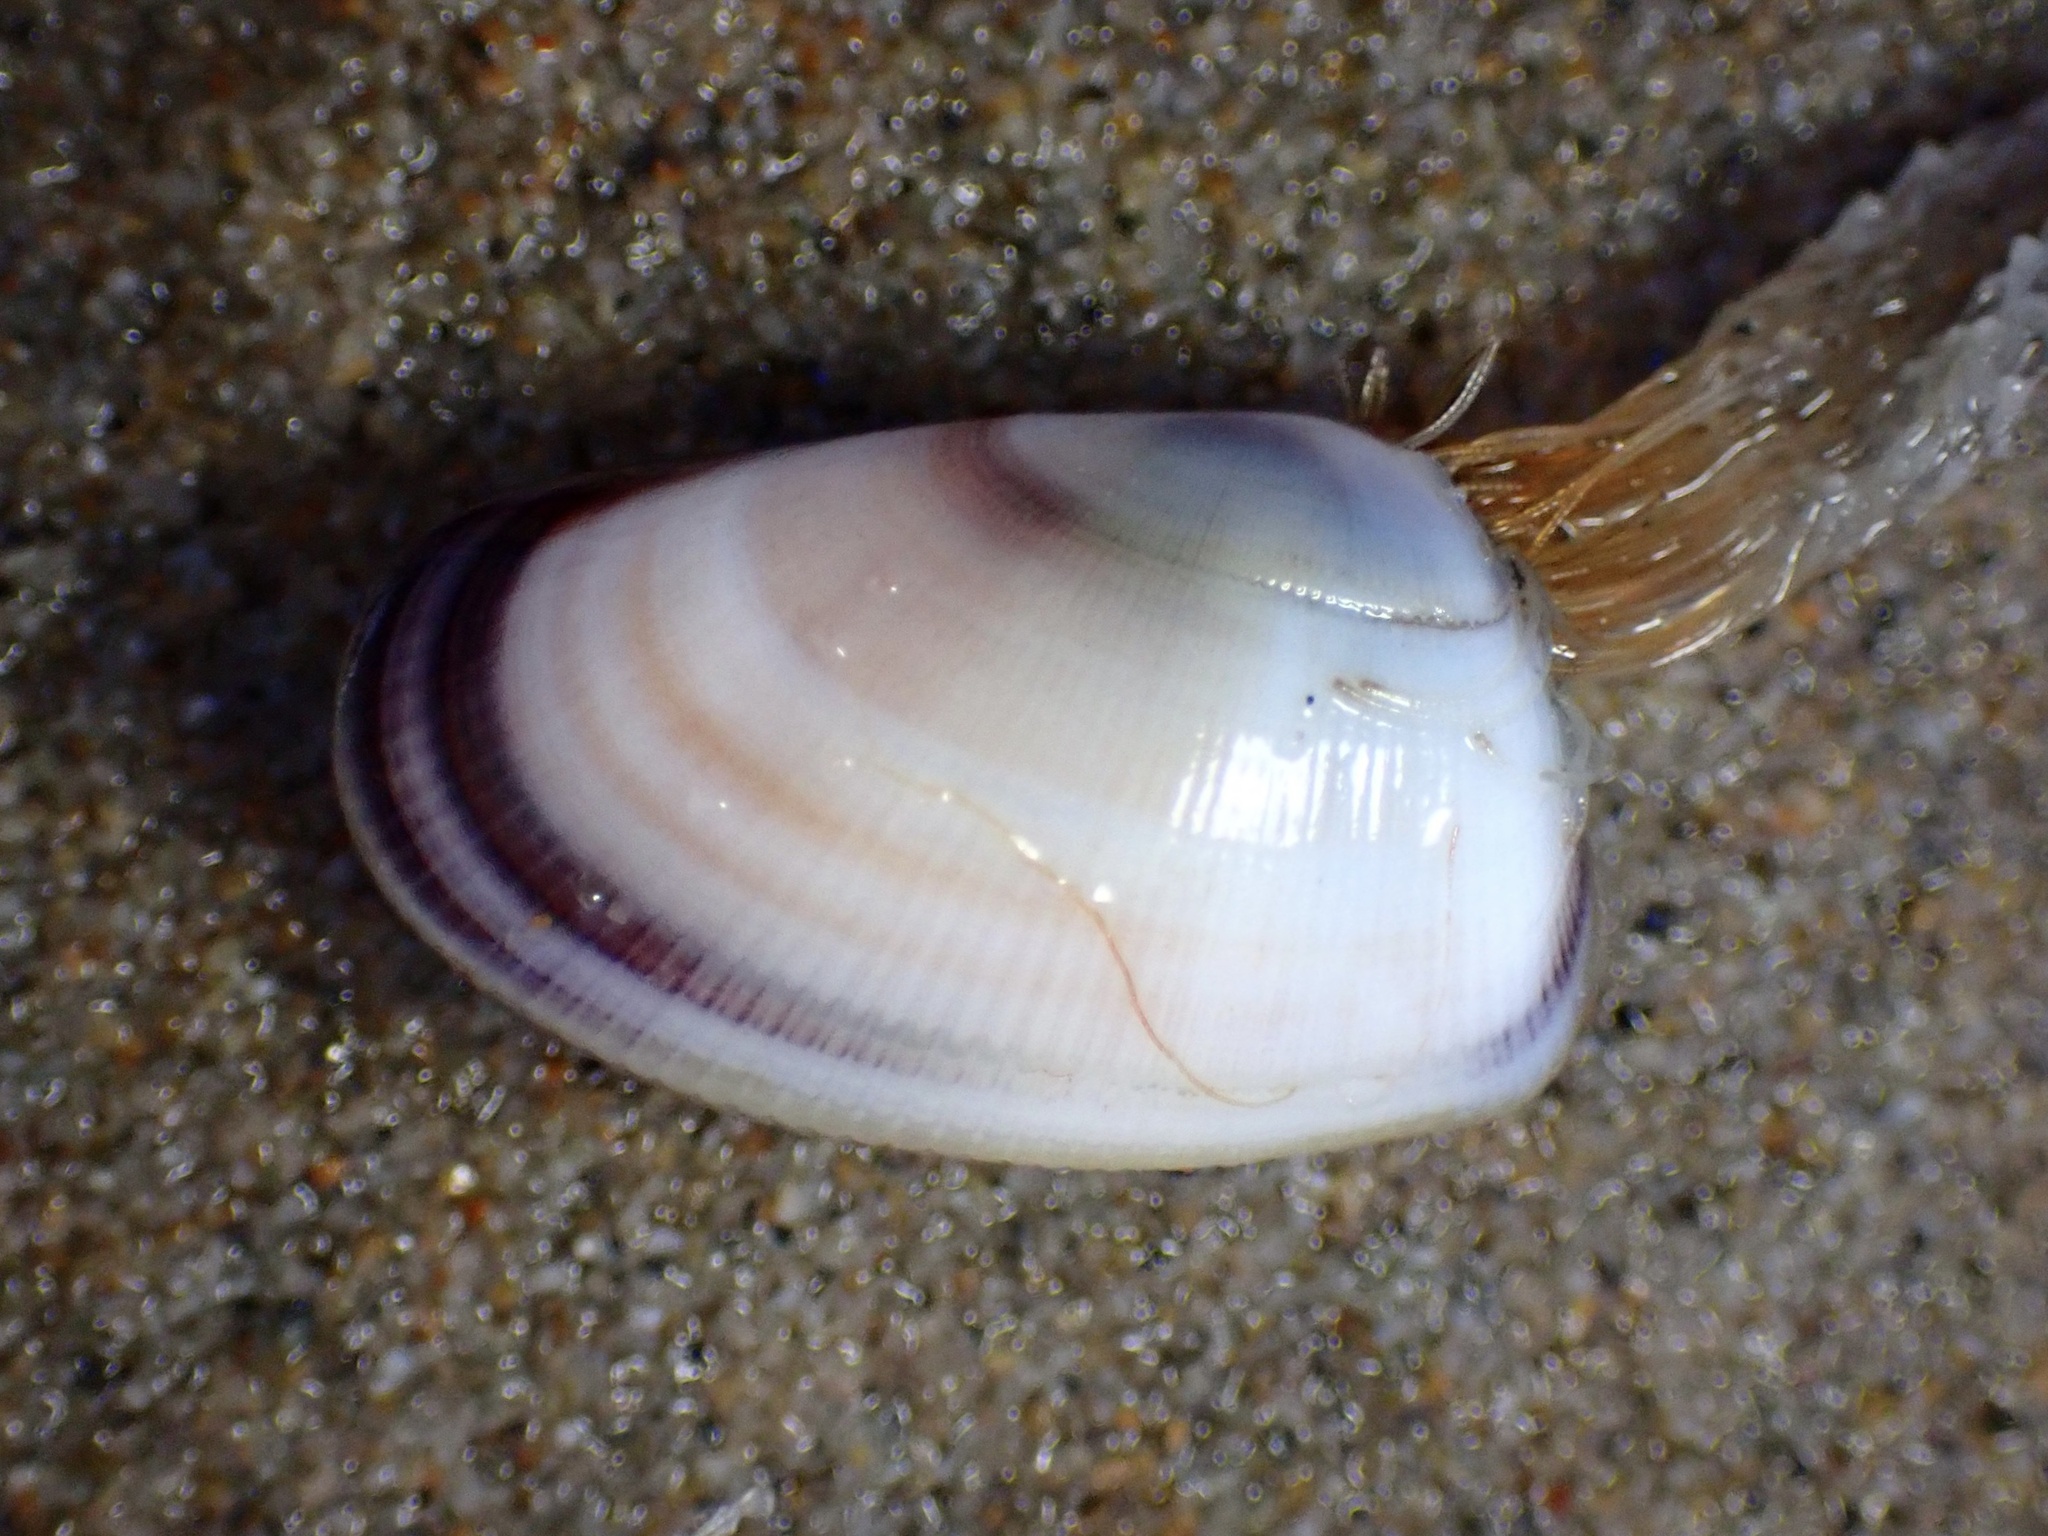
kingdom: Animalia
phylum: Mollusca
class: Bivalvia
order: Cardiida
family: Donacidae
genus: Donax
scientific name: Donax gouldii
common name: Gould beanclam
